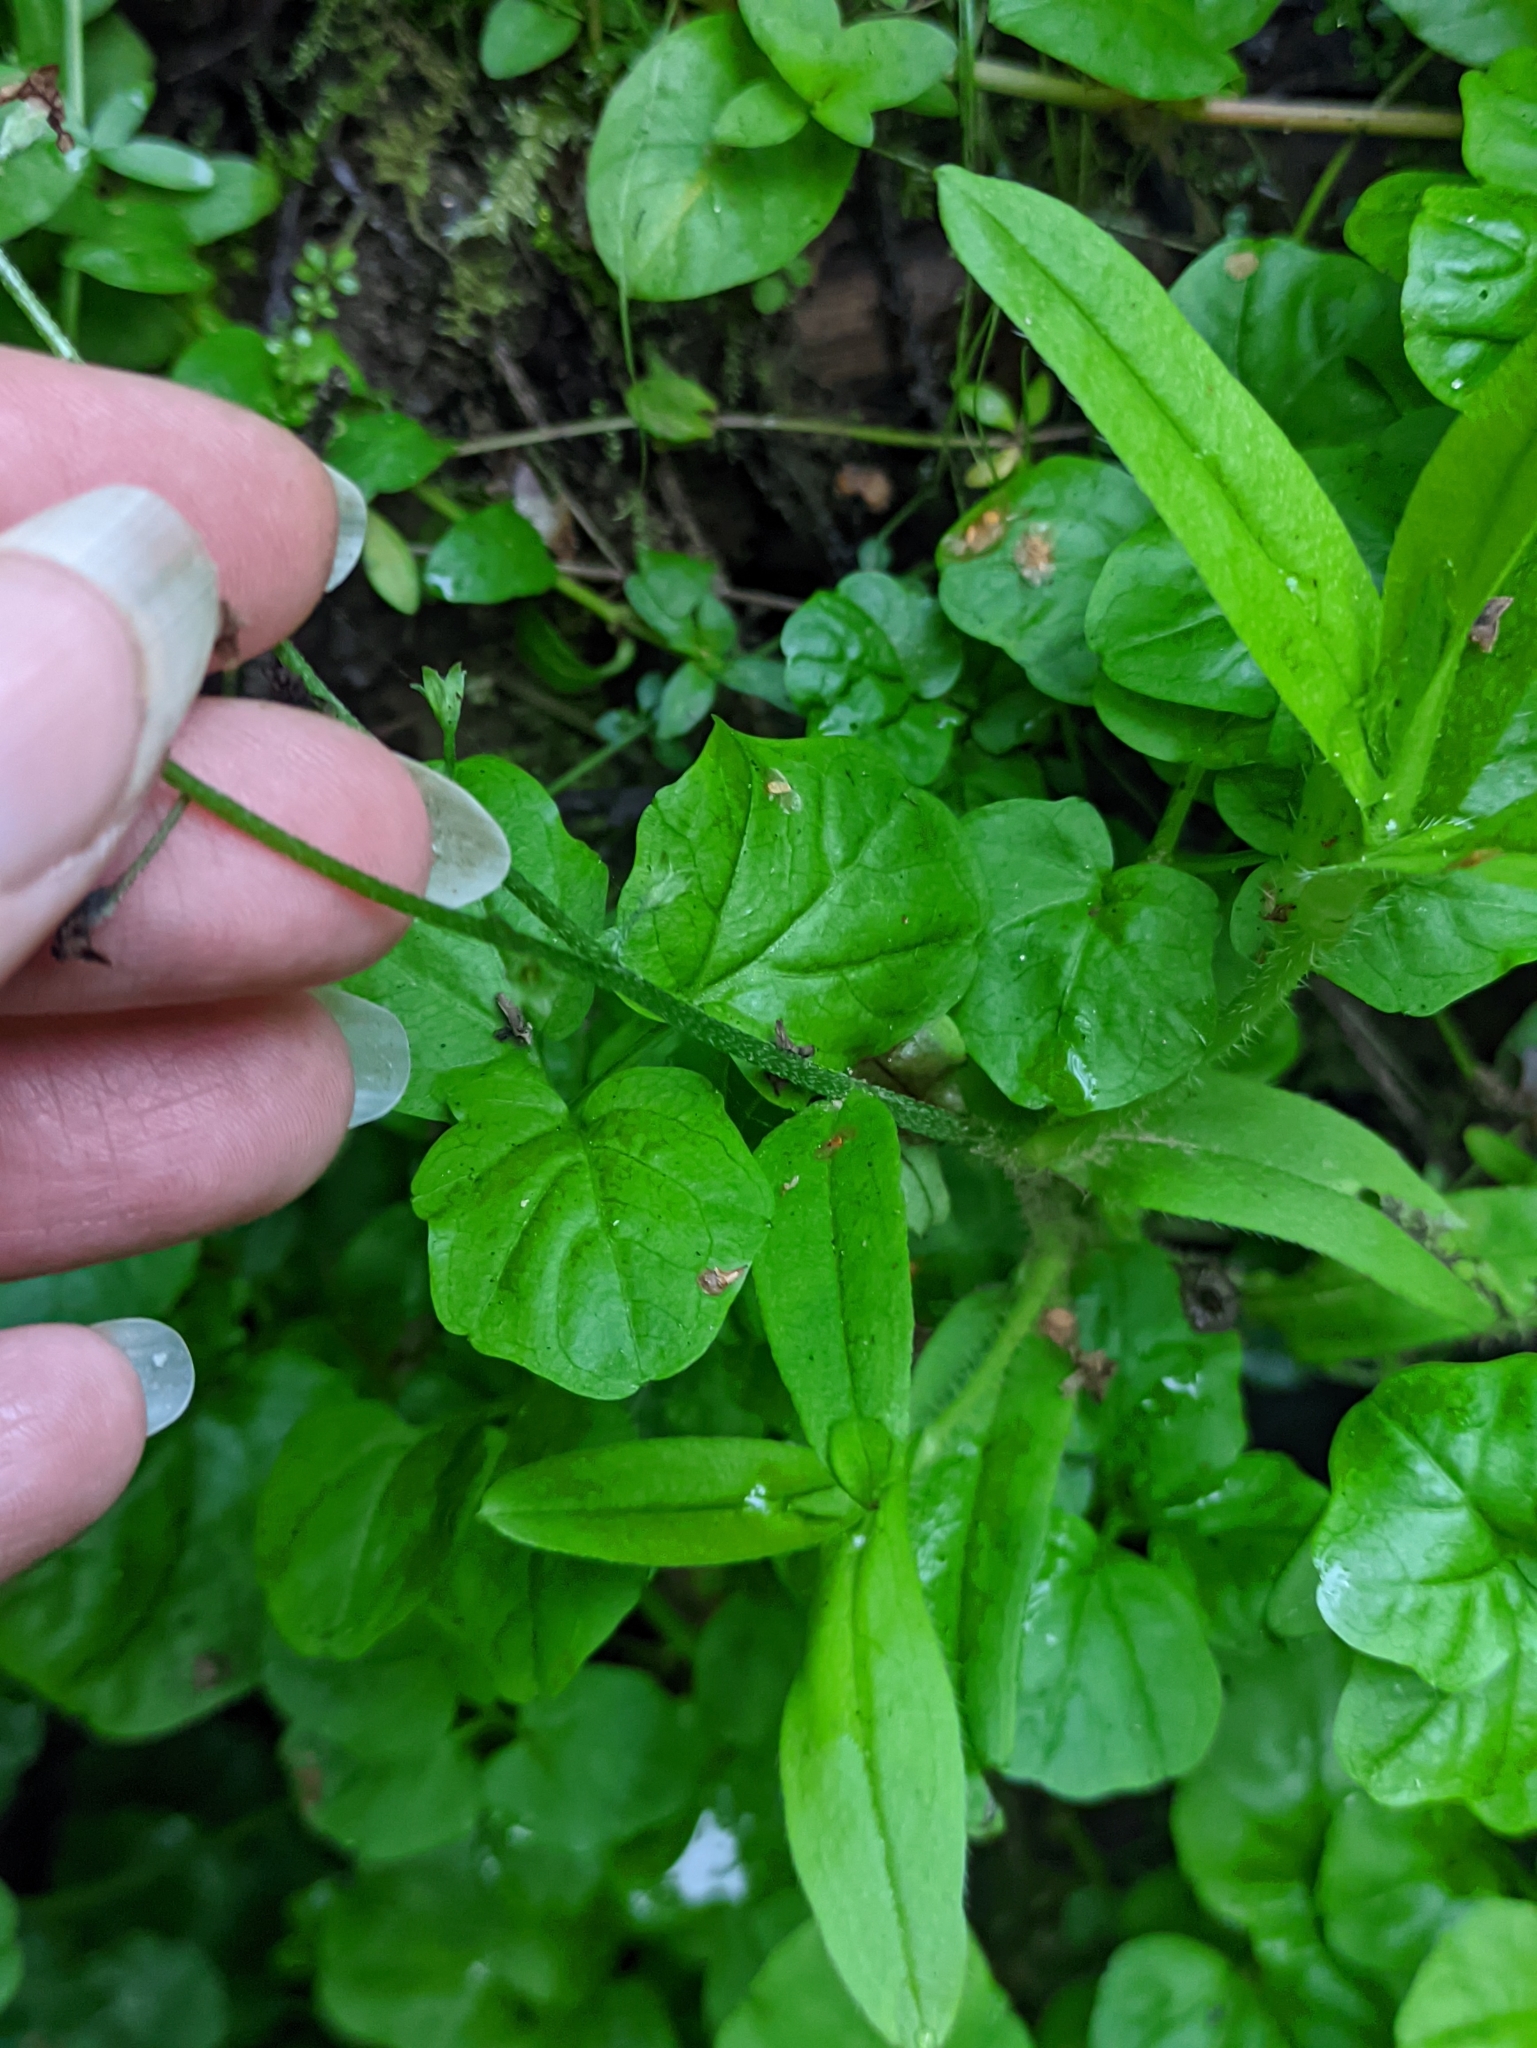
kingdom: Plantae
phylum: Tracheophyta
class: Magnoliopsida
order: Boraginales
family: Boraginaceae
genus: Myosotis
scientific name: Myosotis scorpioides
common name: Water forget-me-not
